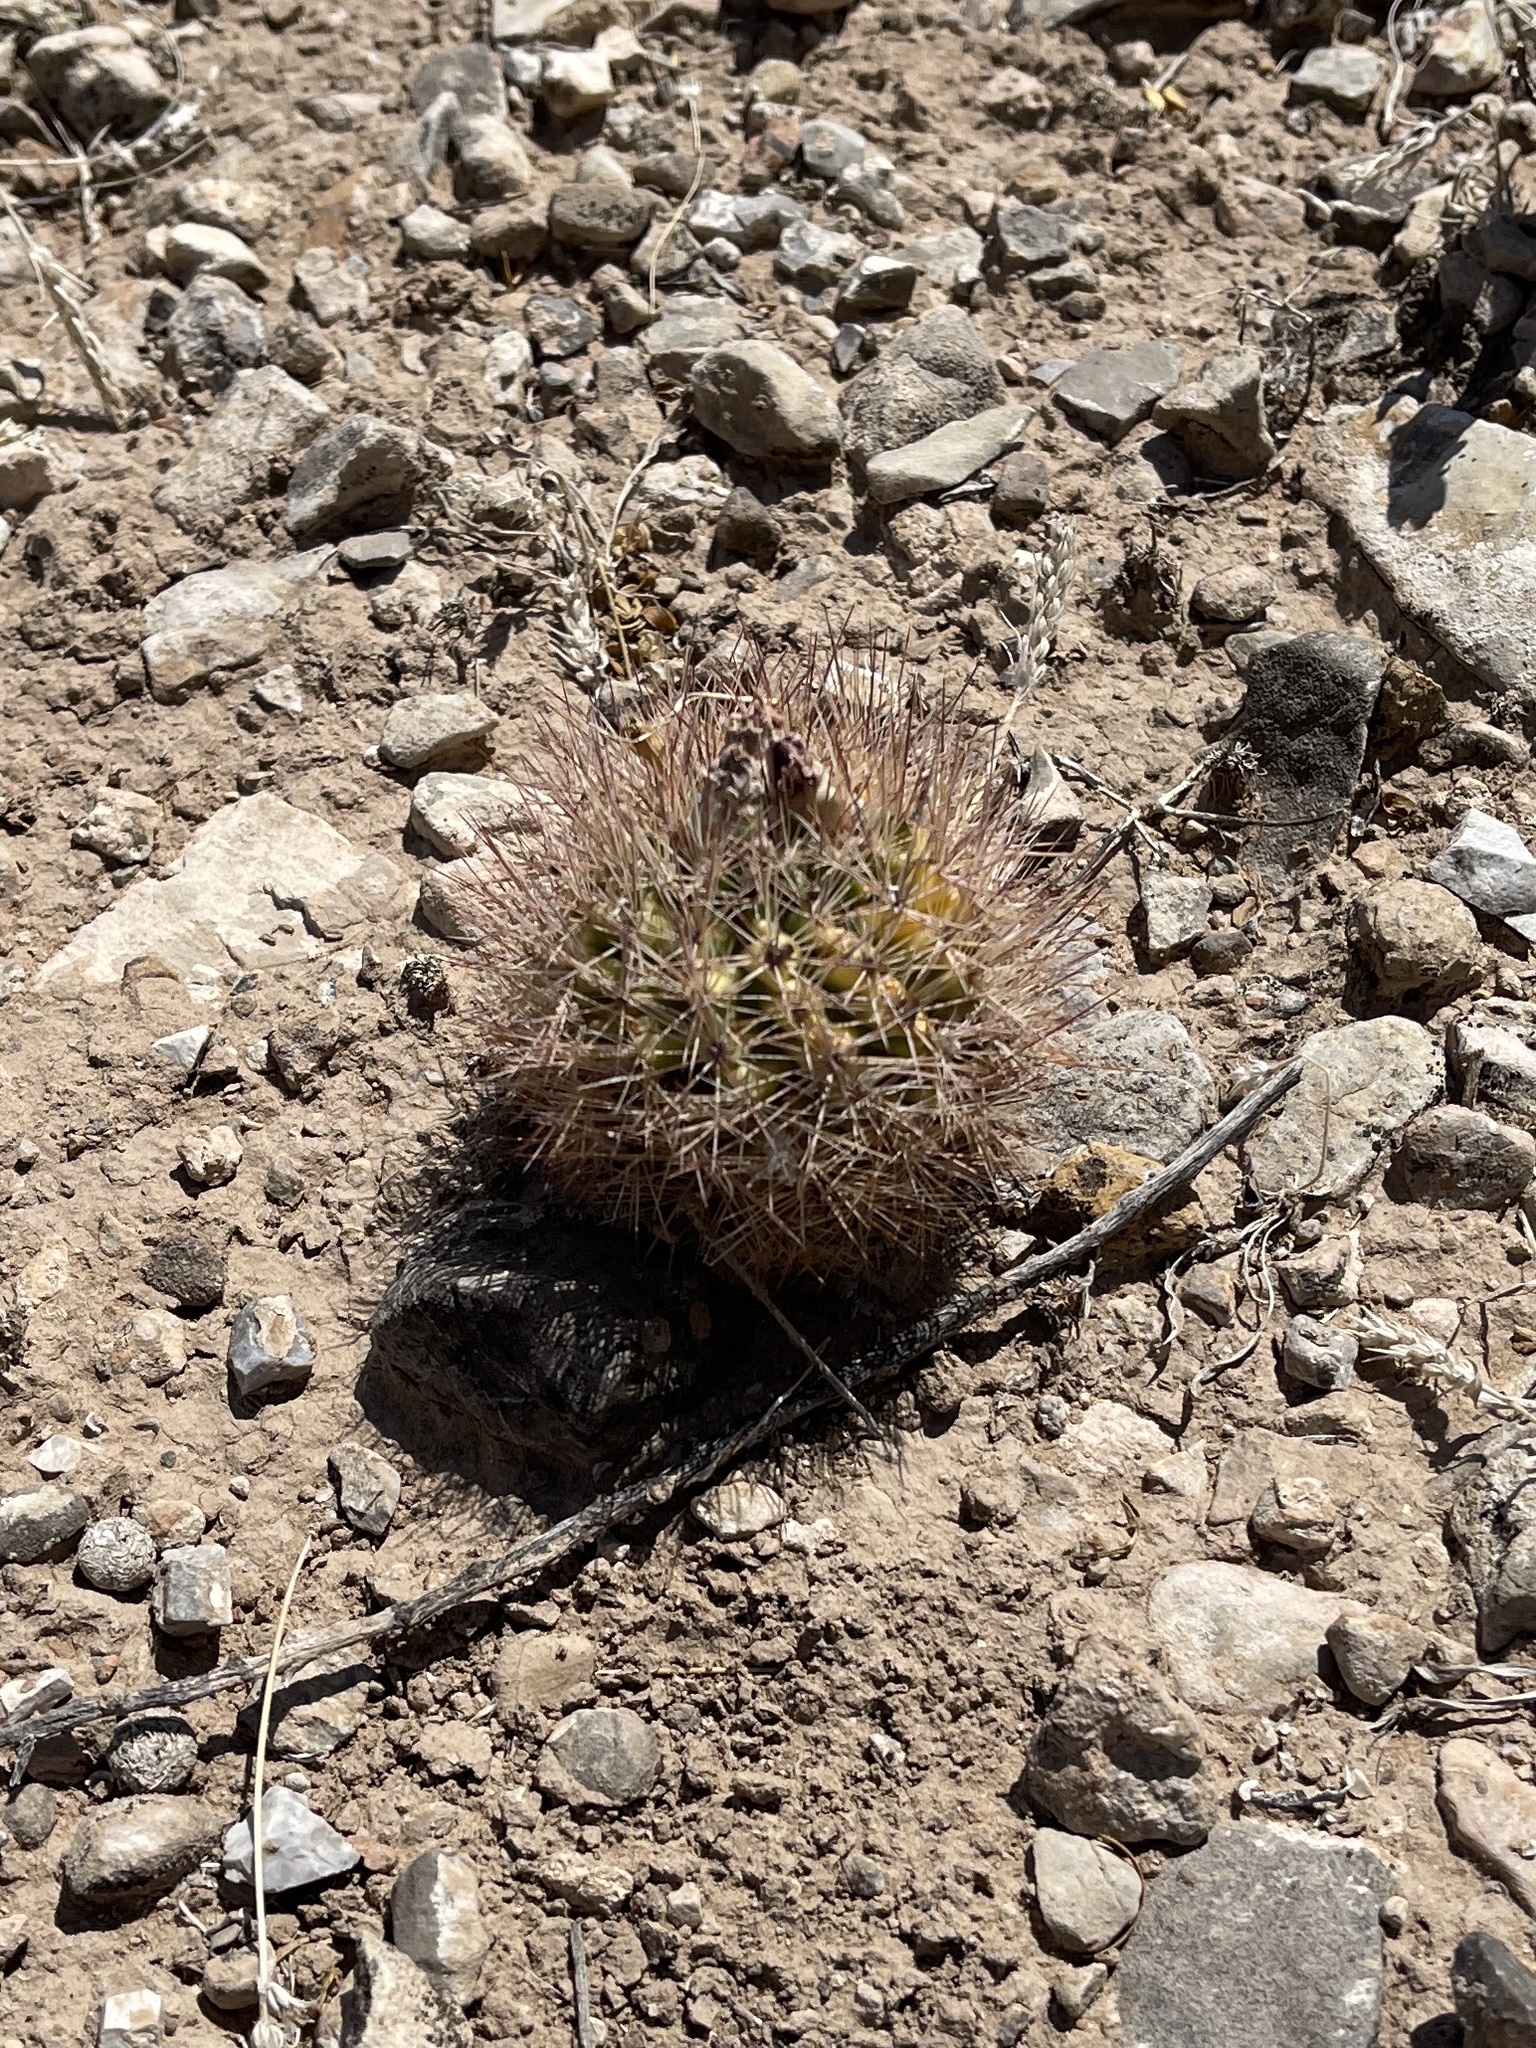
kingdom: Plantae
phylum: Tracheophyta
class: Magnoliopsida
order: Caryophyllales
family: Cactaceae
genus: Sclerocactus
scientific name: Sclerocactus intertextus
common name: White fish-hook cactus
